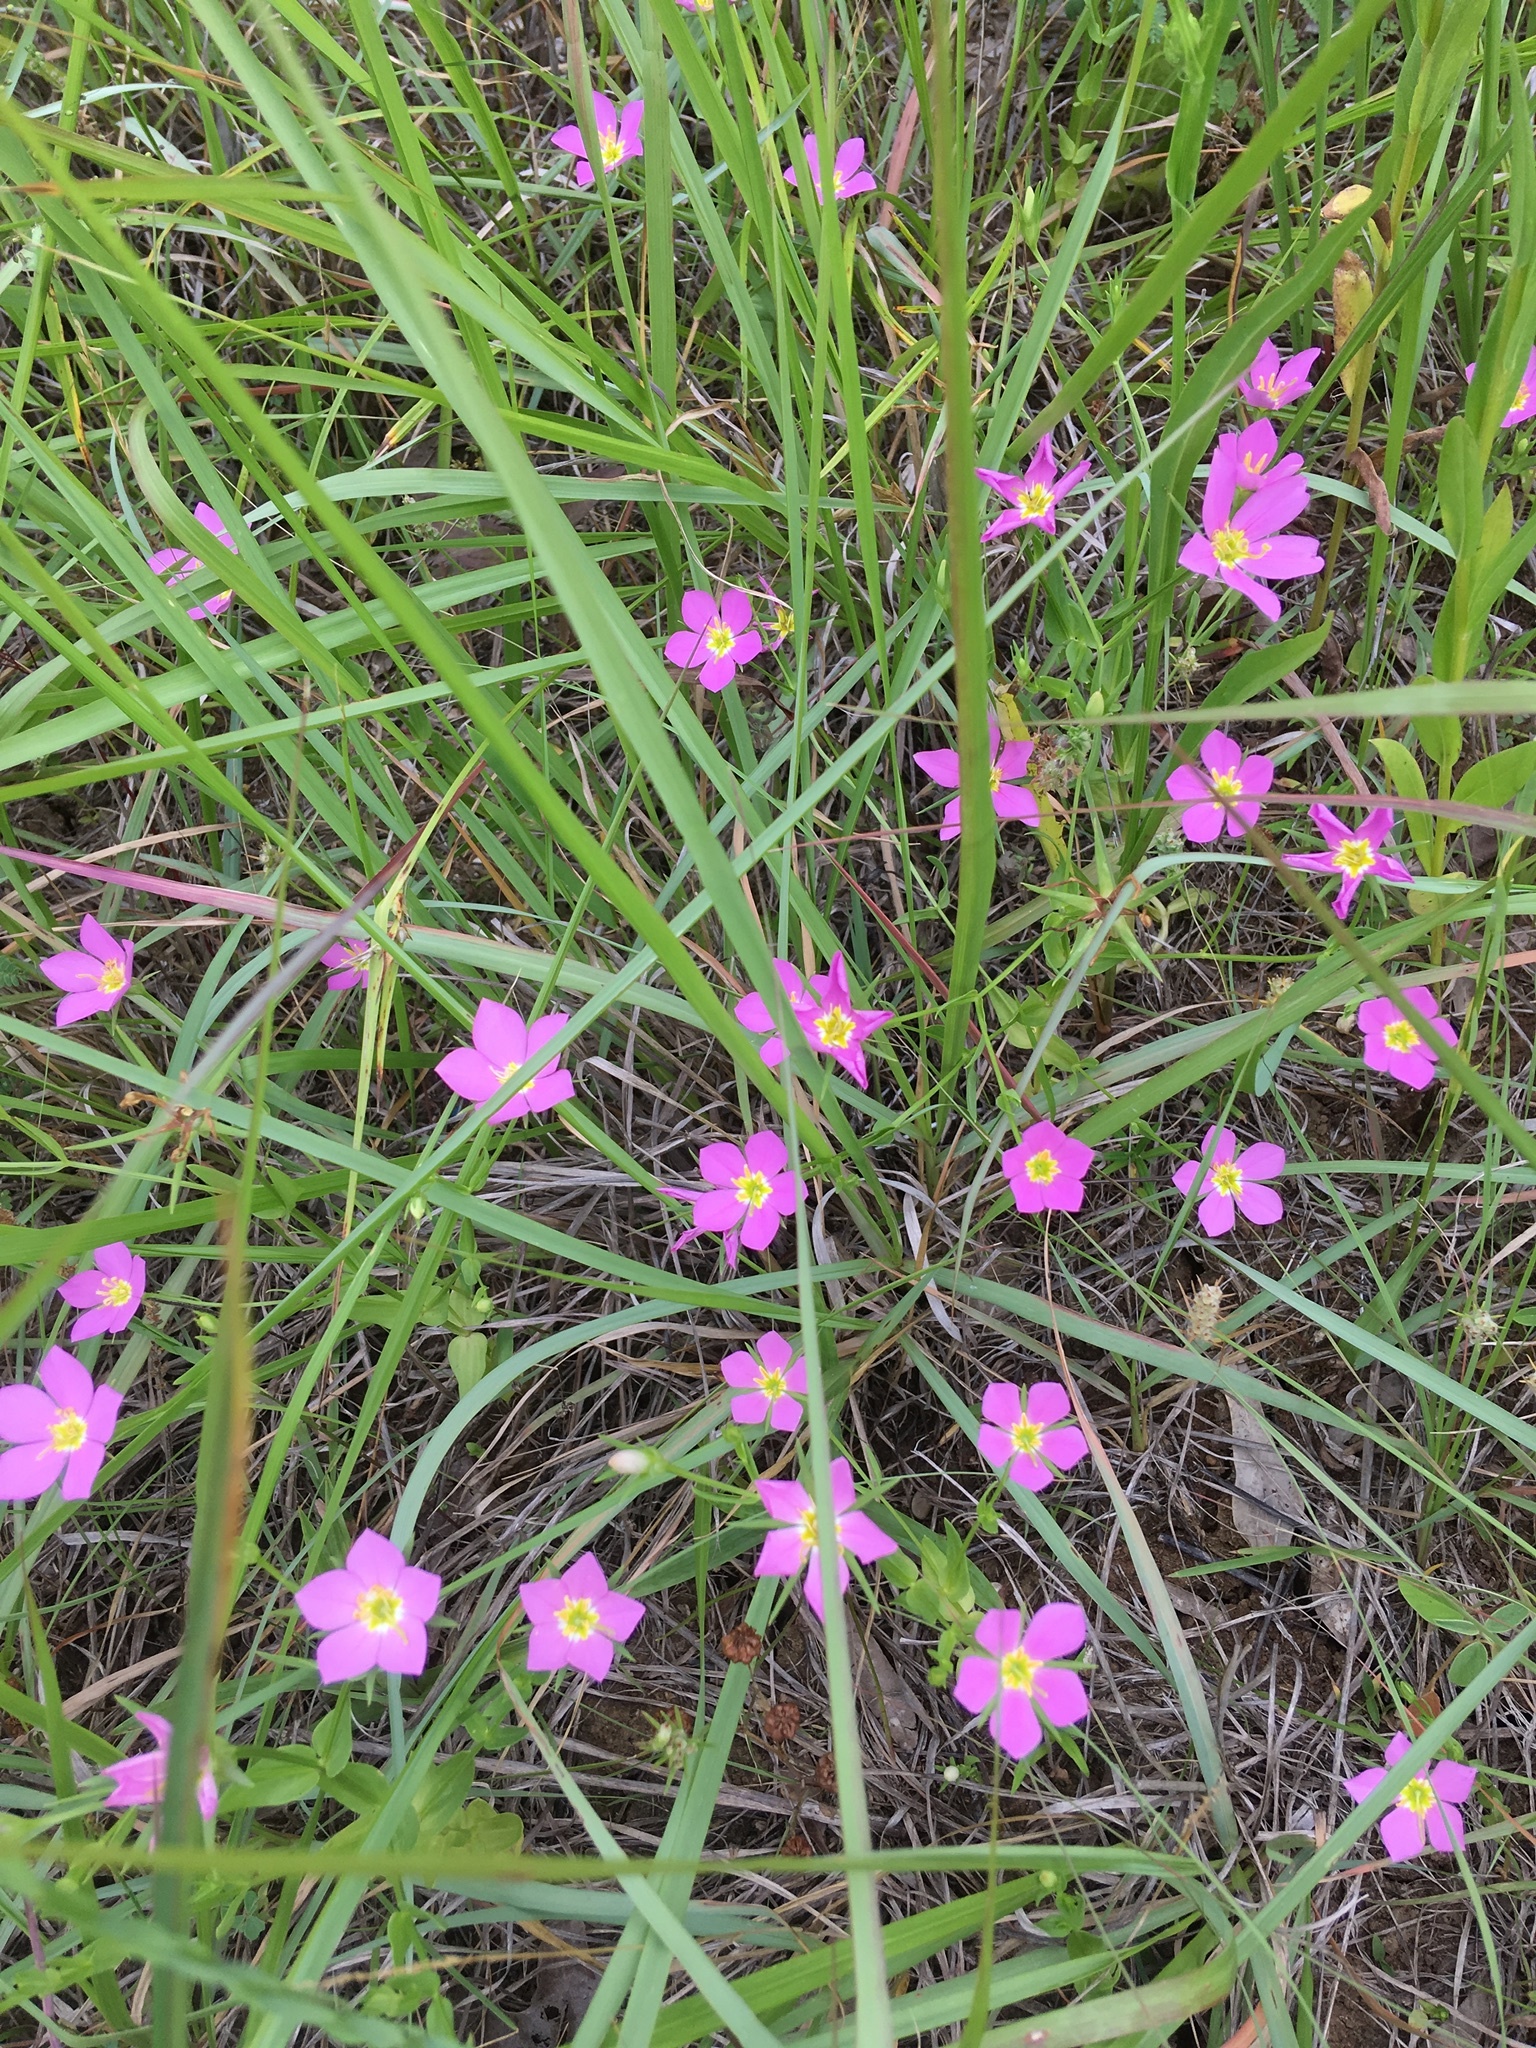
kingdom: Plantae
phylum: Tracheophyta
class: Magnoliopsida
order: Gentianales
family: Gentianaceae
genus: Sabatia
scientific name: Sabatia campestris
